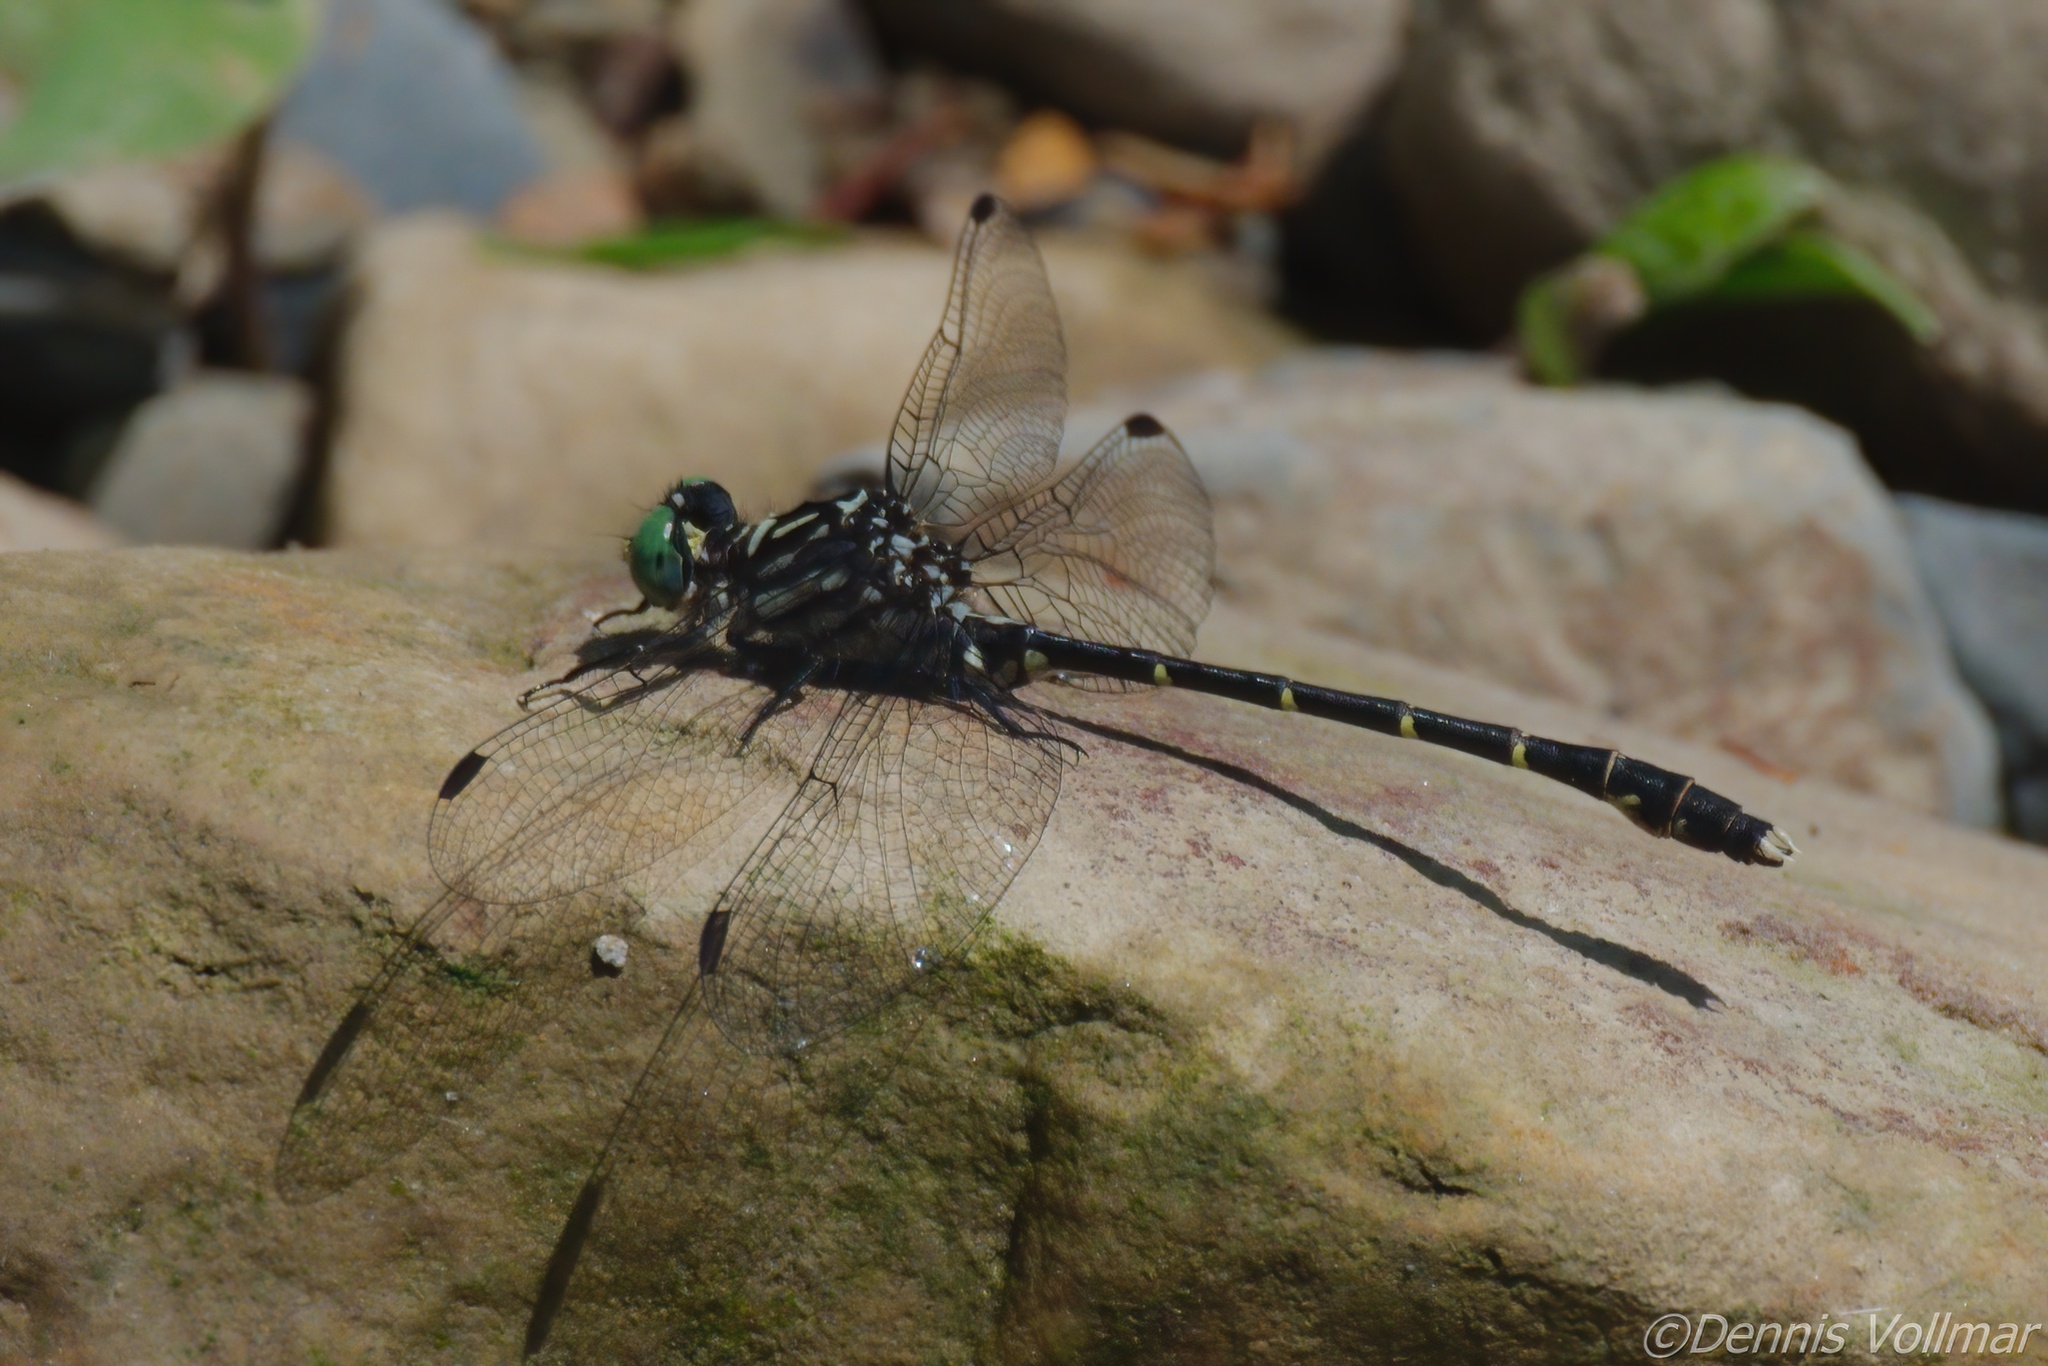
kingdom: Animalia
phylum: Arthropoda
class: Insecta
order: Odonata
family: Gomphidae
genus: Stylogomphus
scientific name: Stylogomphus albistylus
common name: Eastern least clubtail
